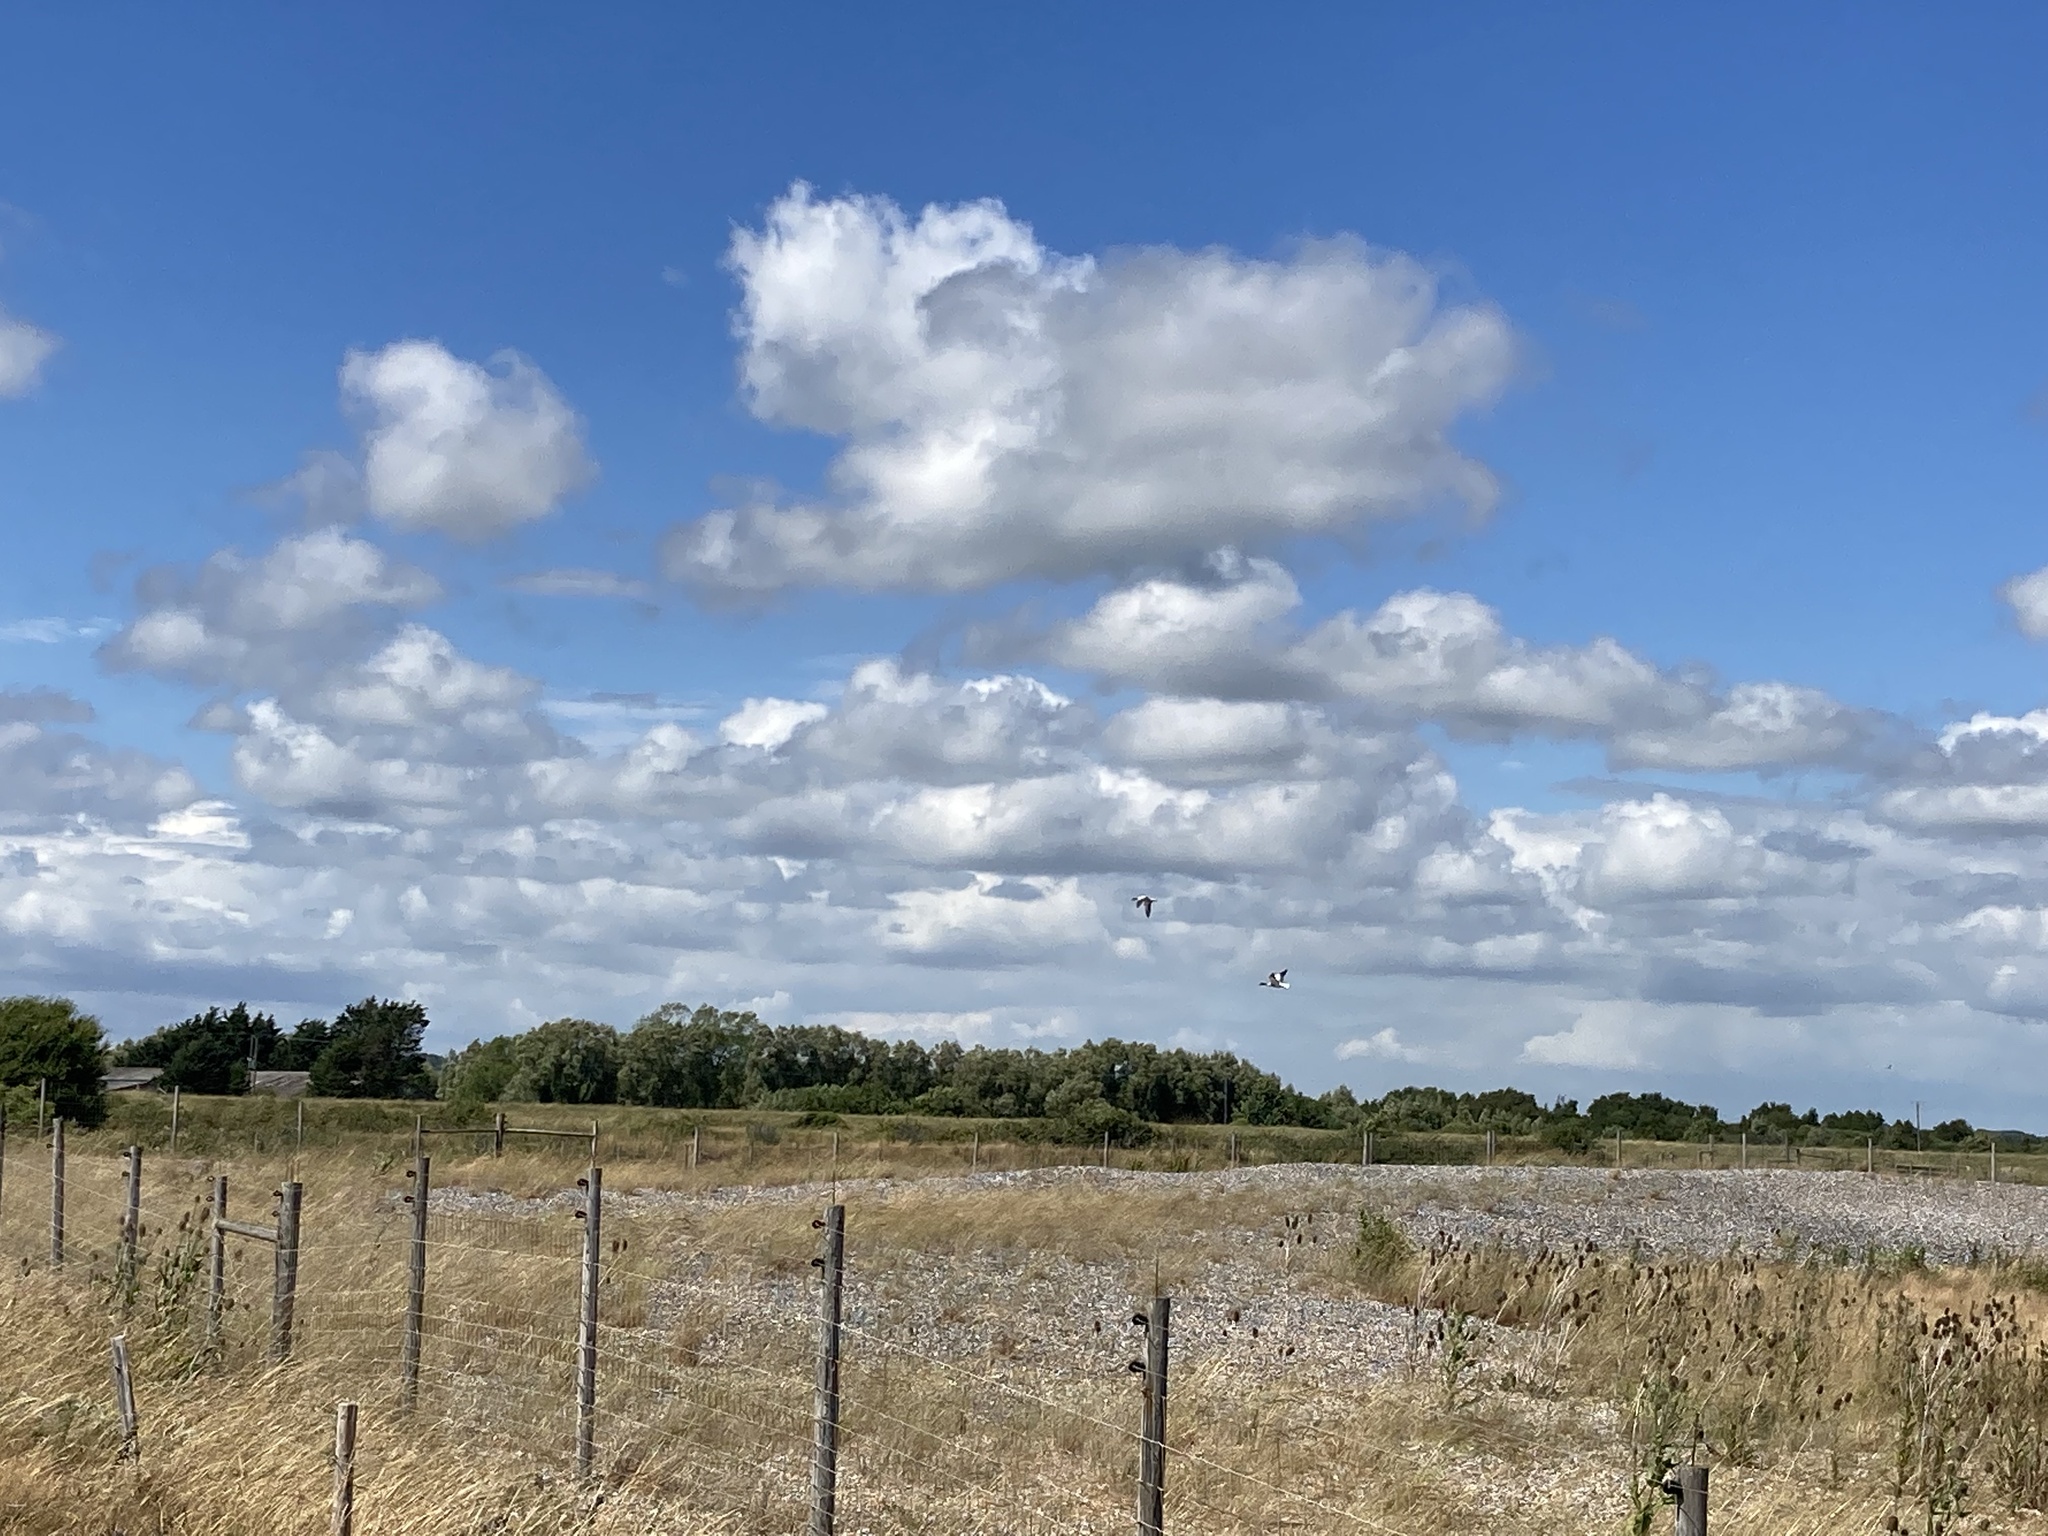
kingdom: Animalia
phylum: Chordata
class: Aves
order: Anseriformes
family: Anatidae
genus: Tadorna
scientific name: Tadorna tadorna
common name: Common shelduck
